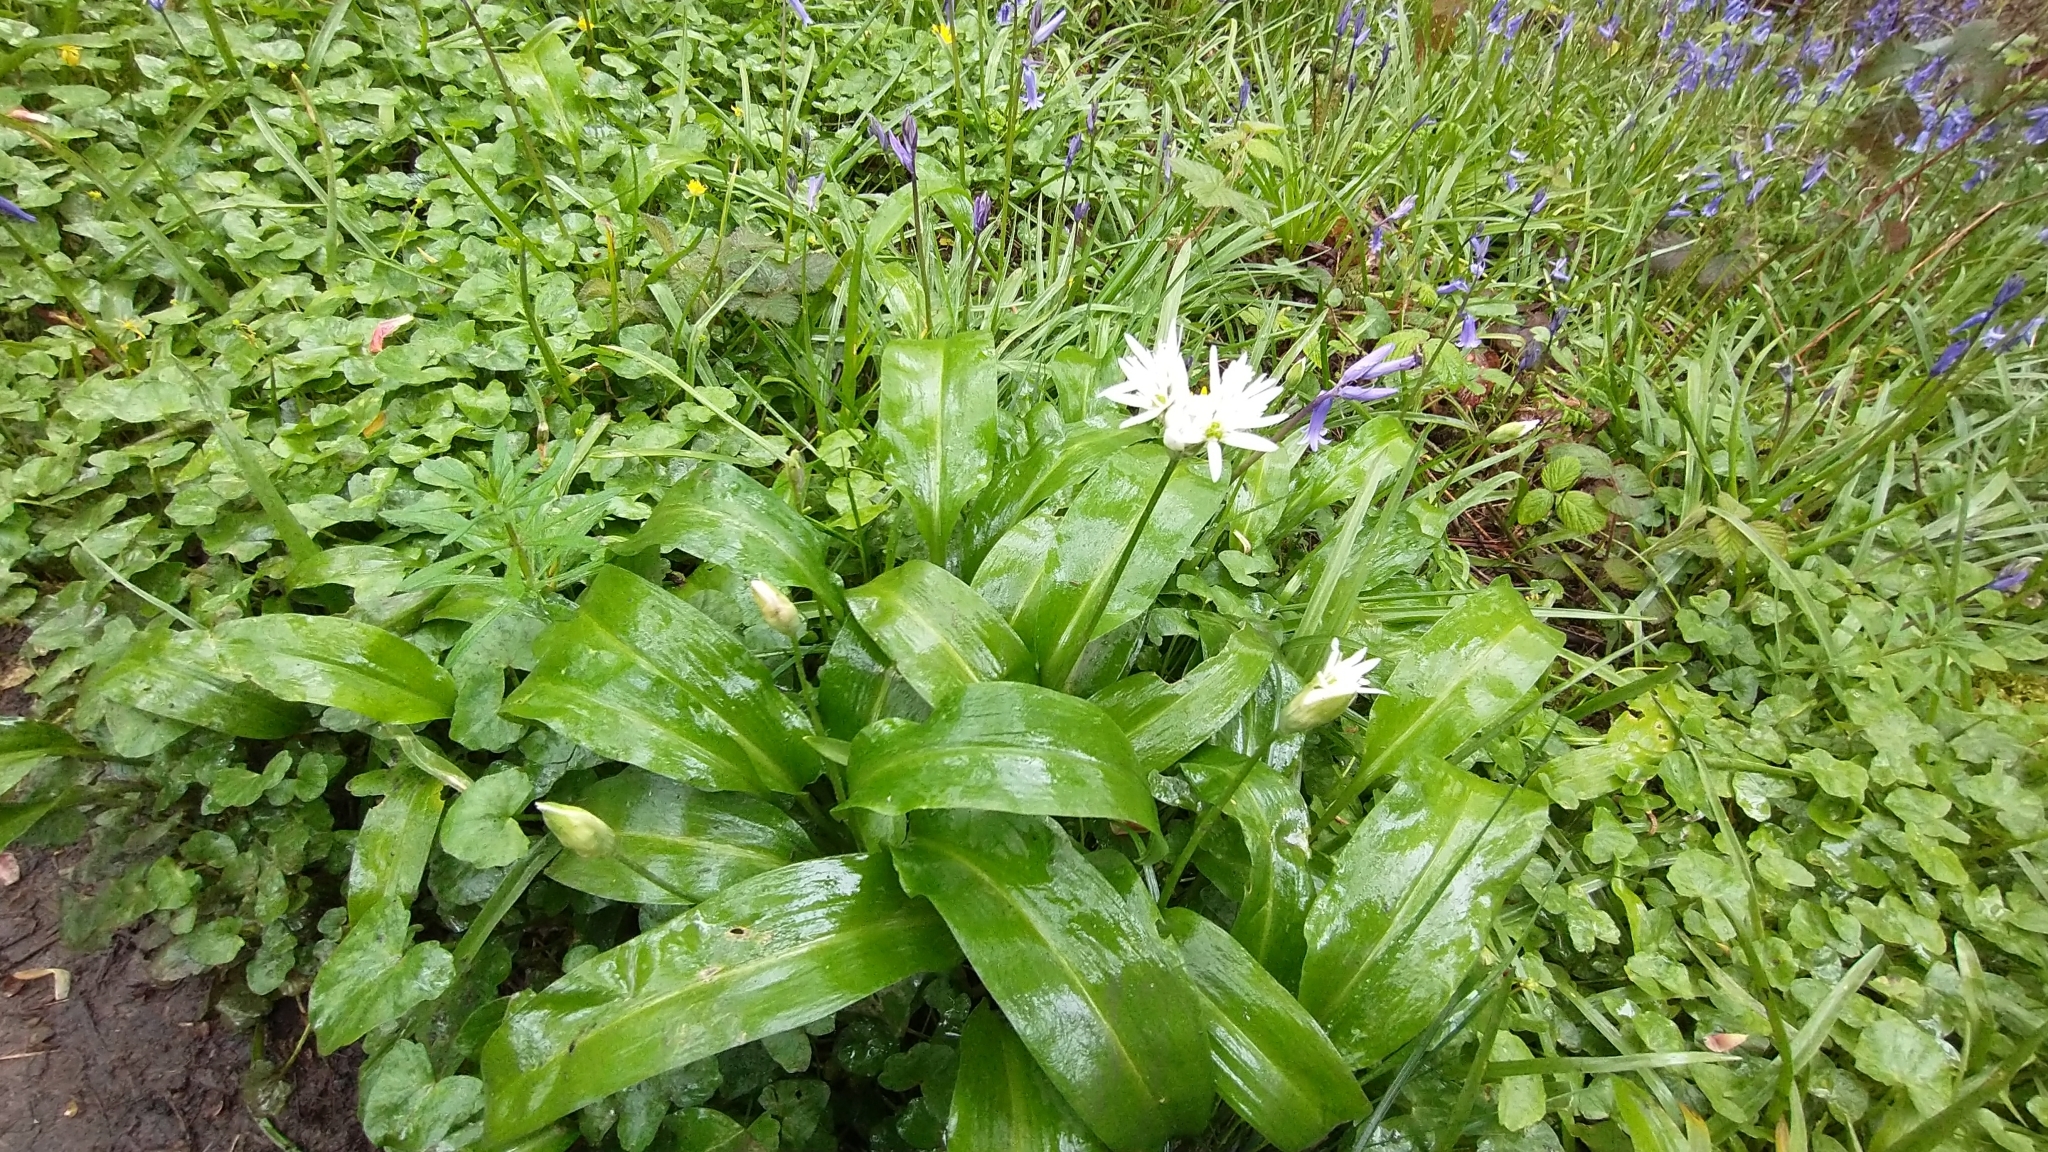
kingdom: Plantae
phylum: Tracheophyta
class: Liliopsida
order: Asparagales
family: Amaryllidaceae
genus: Allium
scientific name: Allium ursinum
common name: Ramsons
